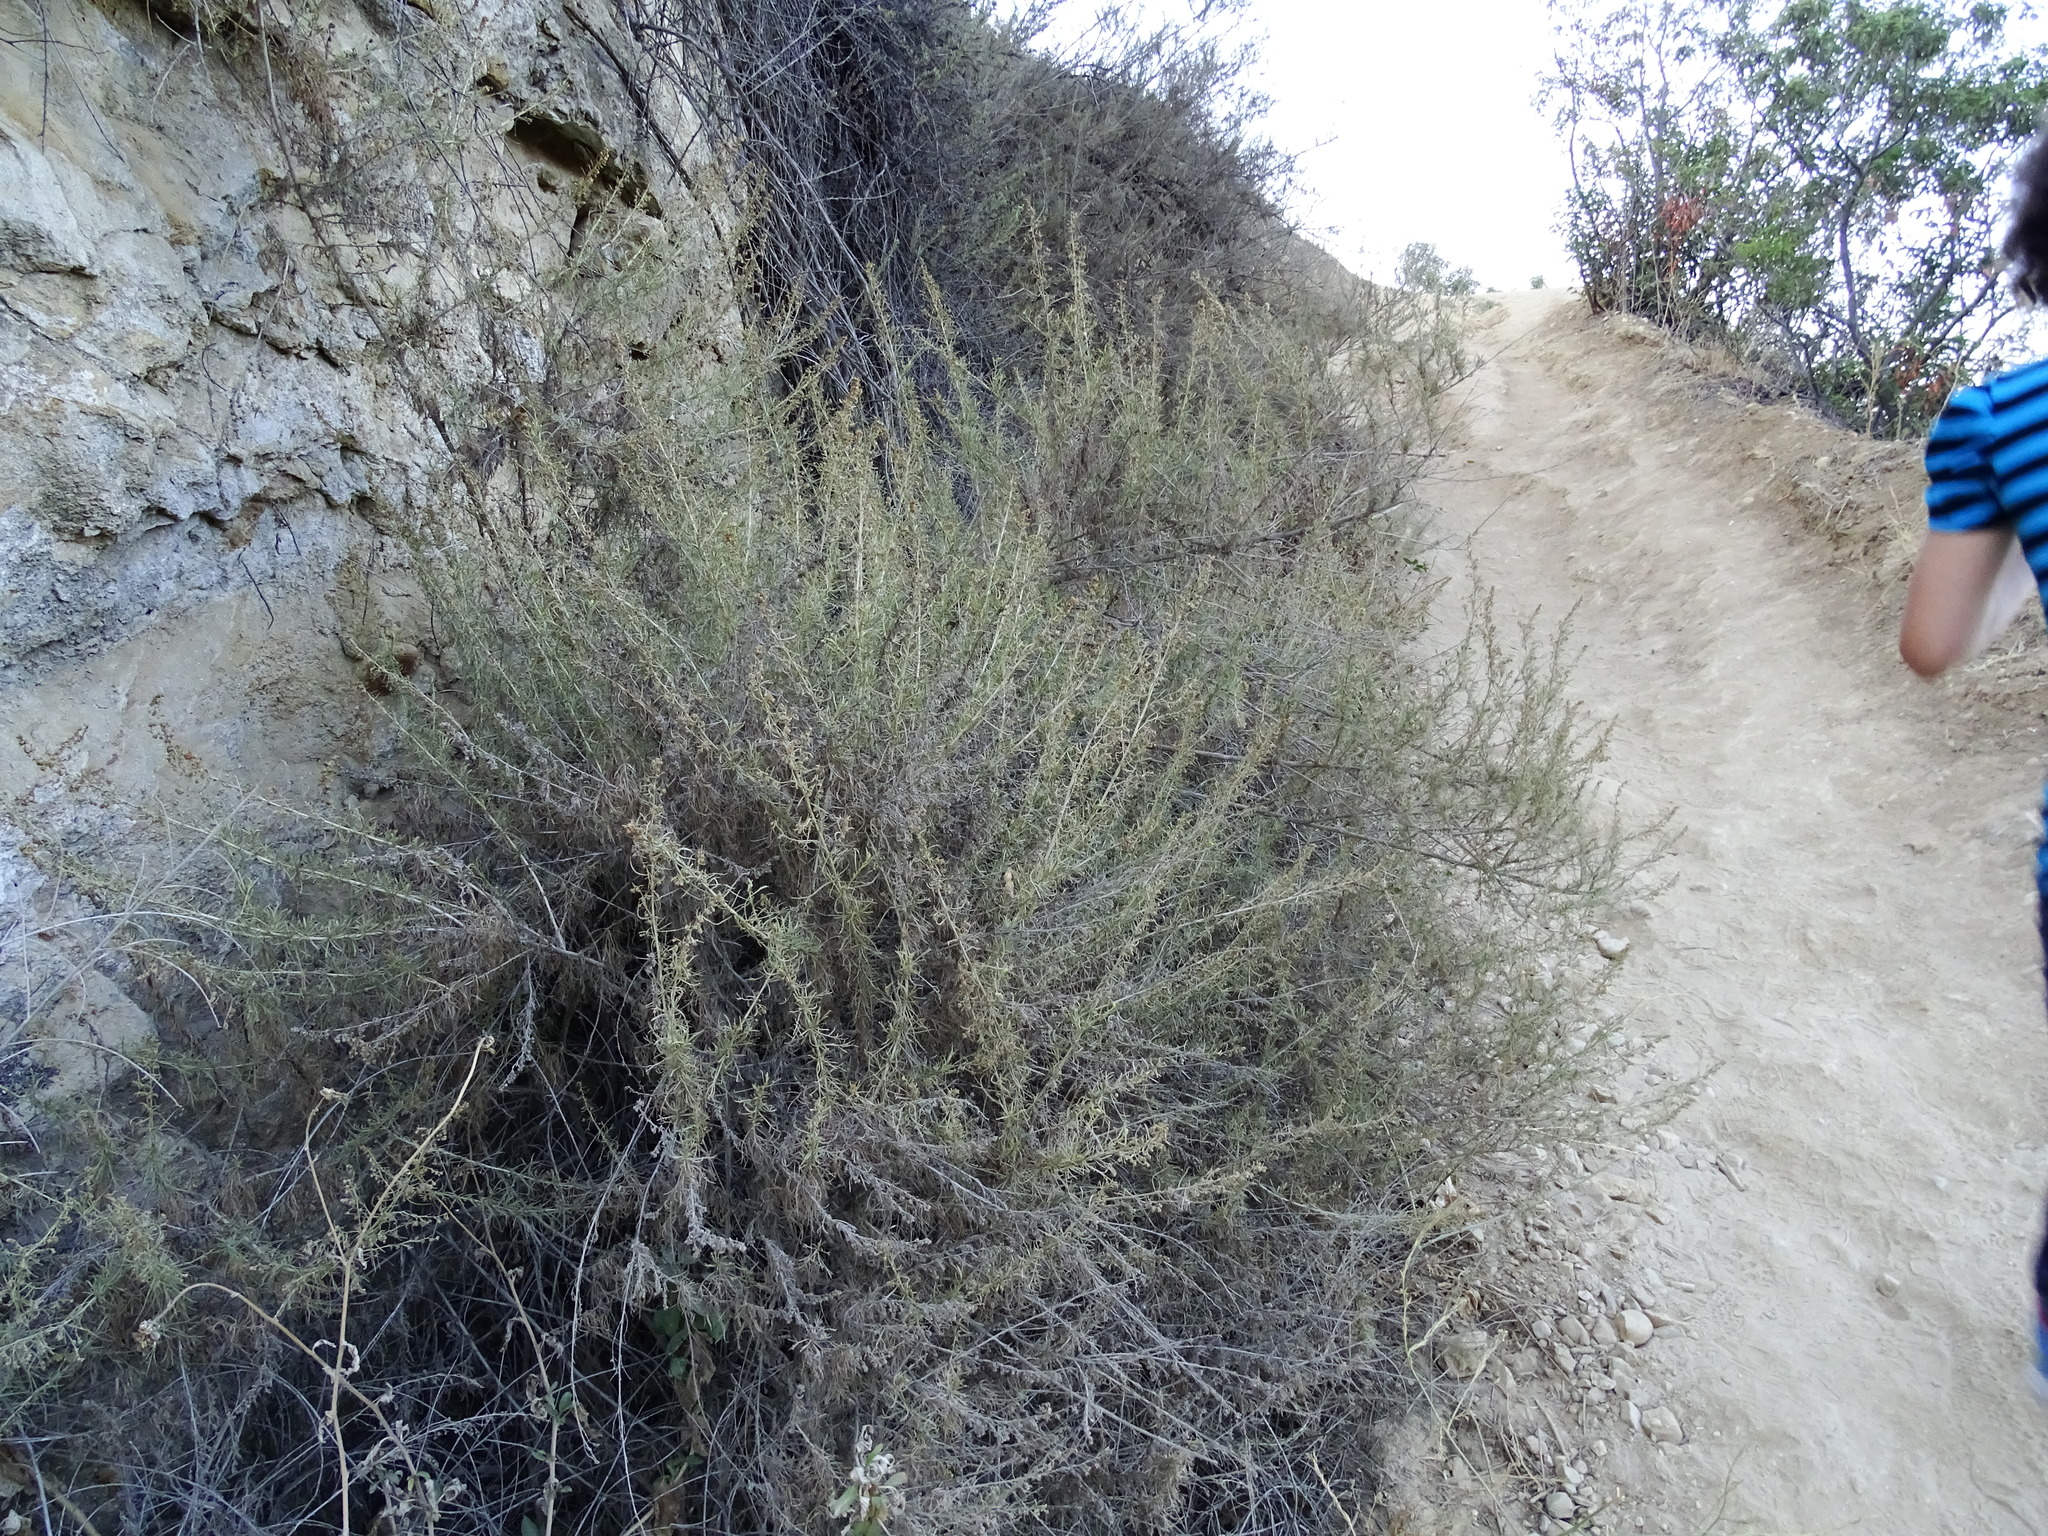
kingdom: Plantae
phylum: Tracheophyta
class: Magnoliopsida
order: Asterales
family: Asteraceae
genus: Artemisia
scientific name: Artemisia californica
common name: California sagebrush
